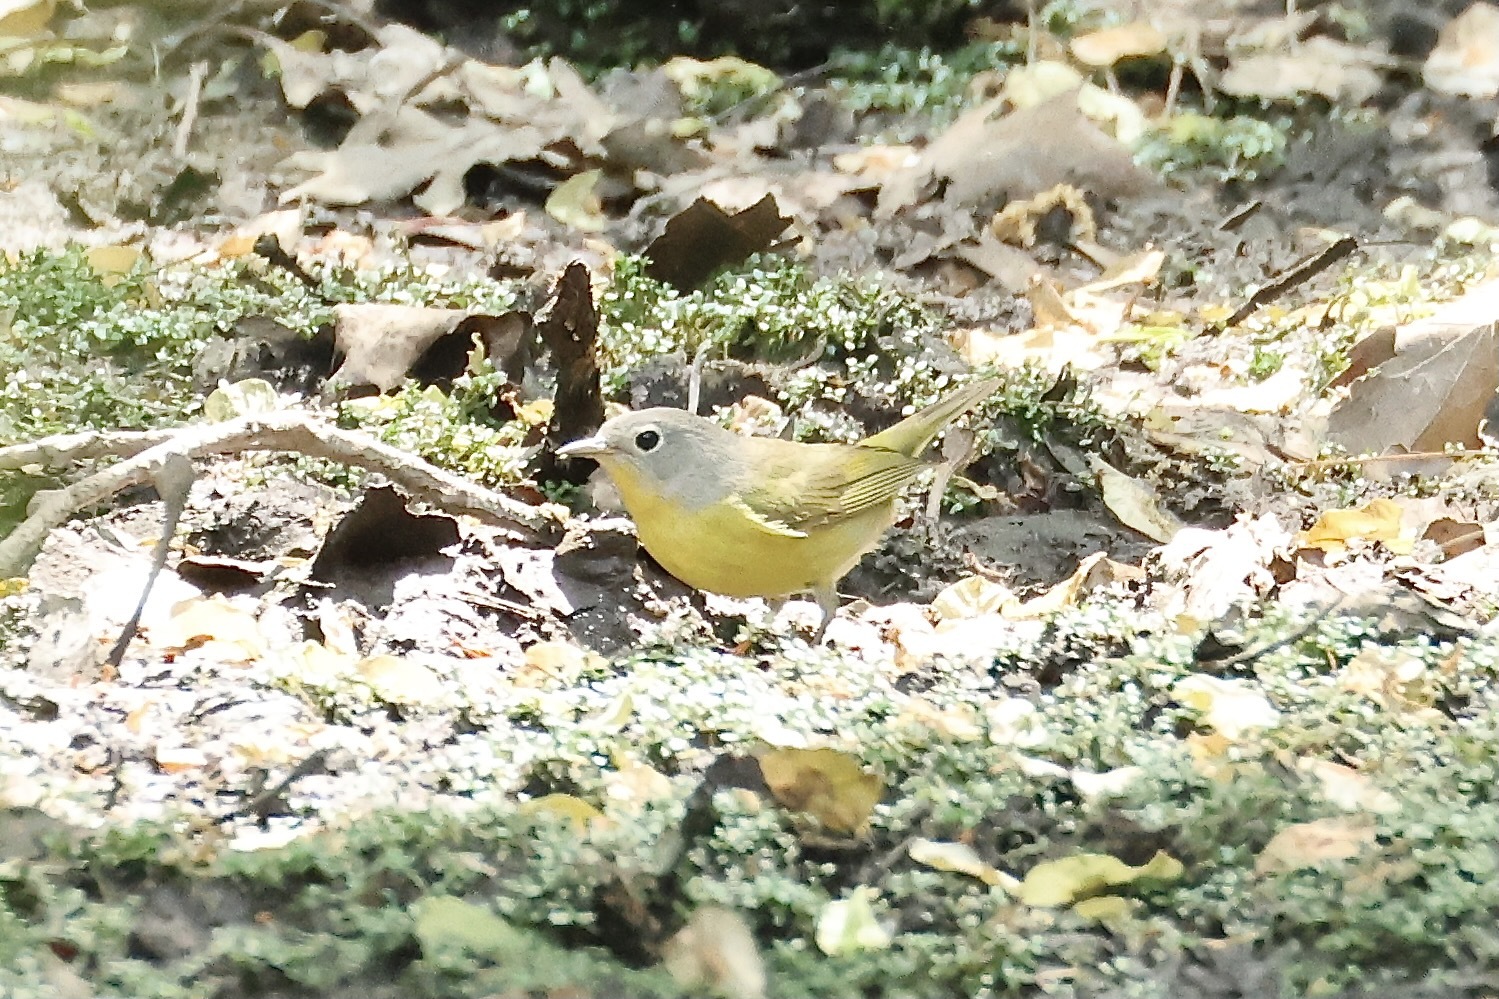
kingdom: Animalia
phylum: Chordata
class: Aves
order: Passeriformes
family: Parulidae
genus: Leiothlypis
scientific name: Leiothlypis ruficapilla
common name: Nashville warbler
